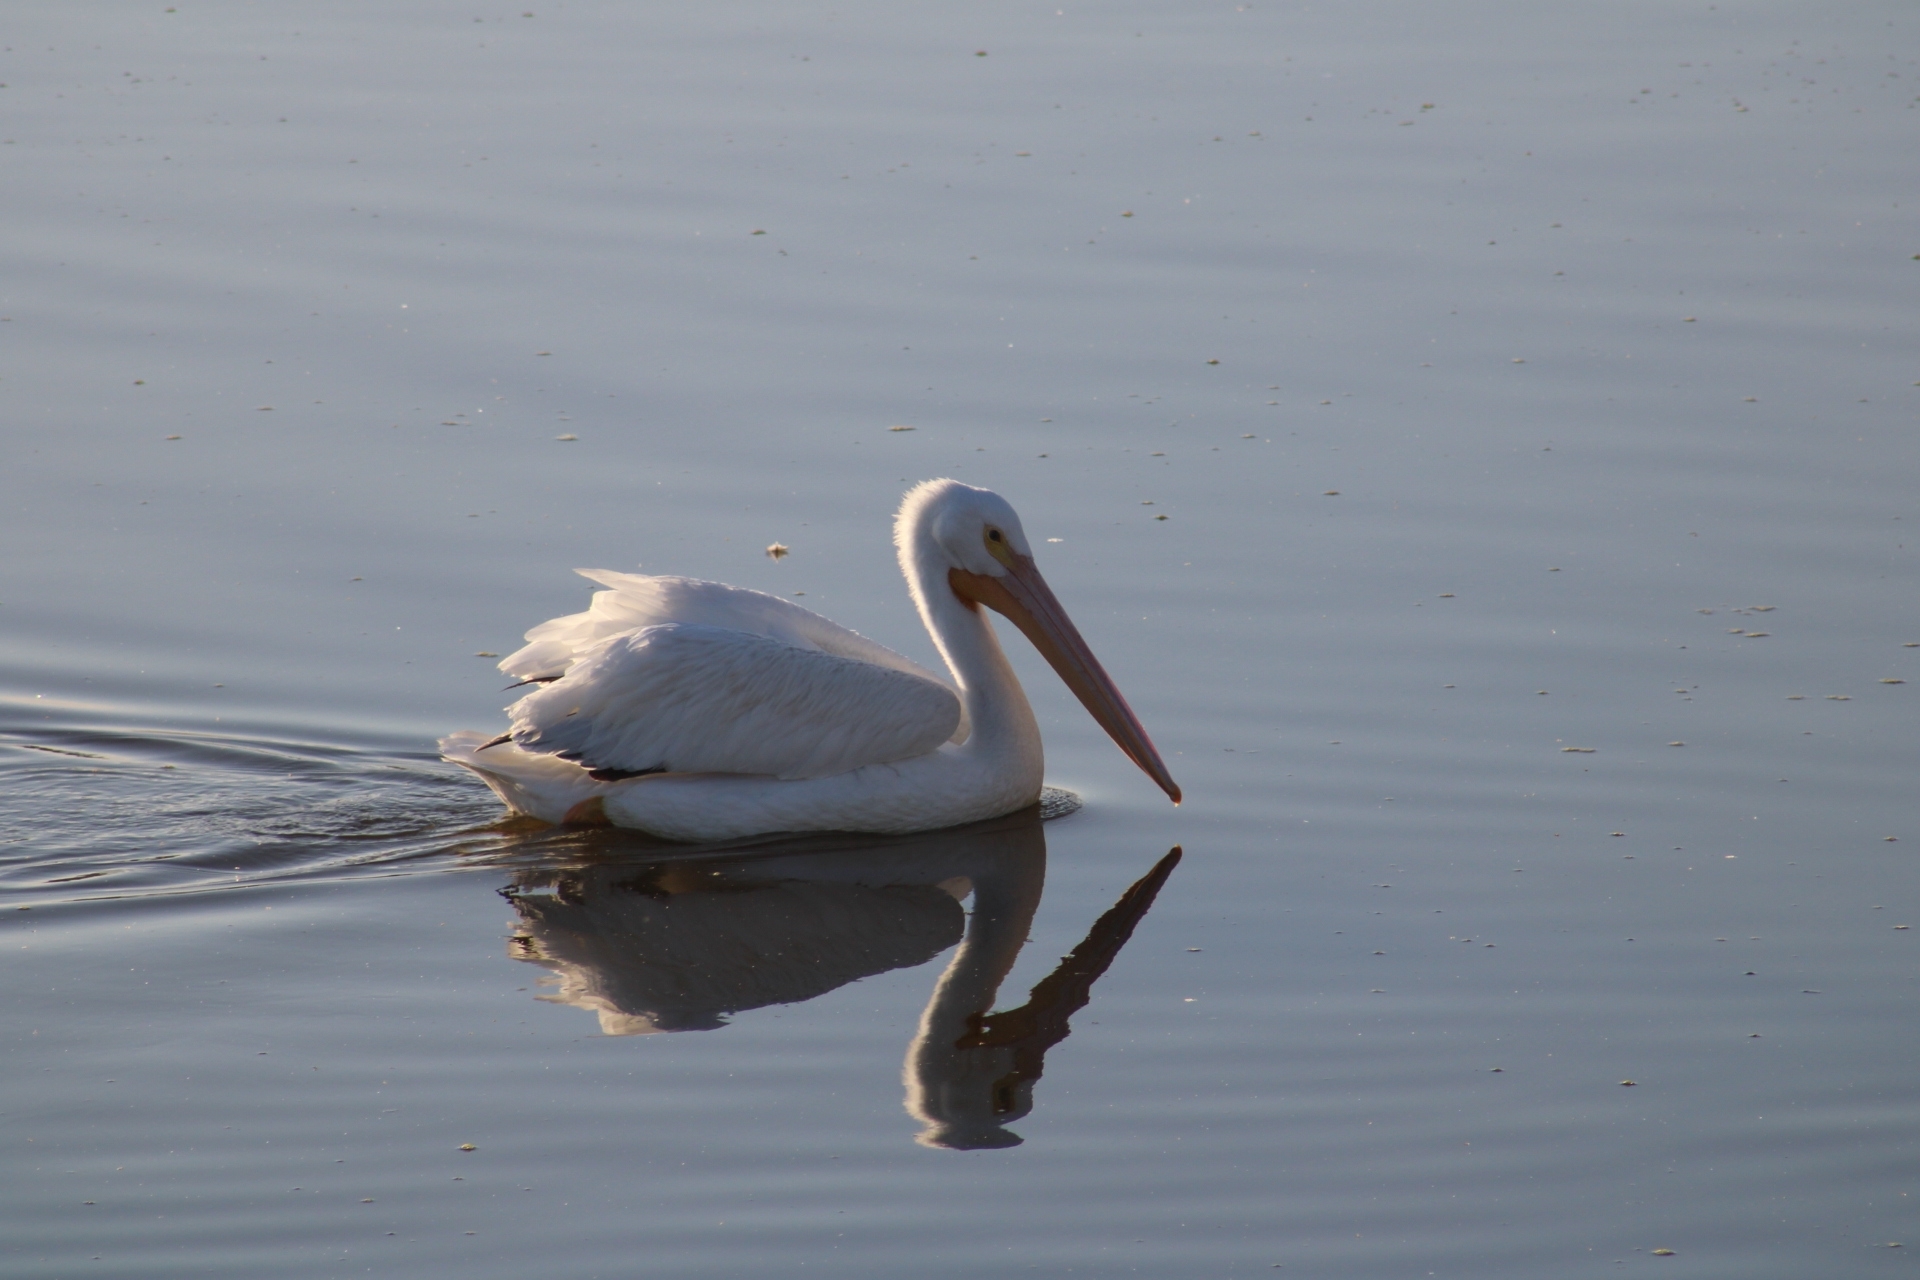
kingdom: Animalia
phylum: Chordata
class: Aves
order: Pelecaniformes
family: Pelecanidae
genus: Pelecanus
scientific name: Pelecanus erythrorhynchos
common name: American white pelican
